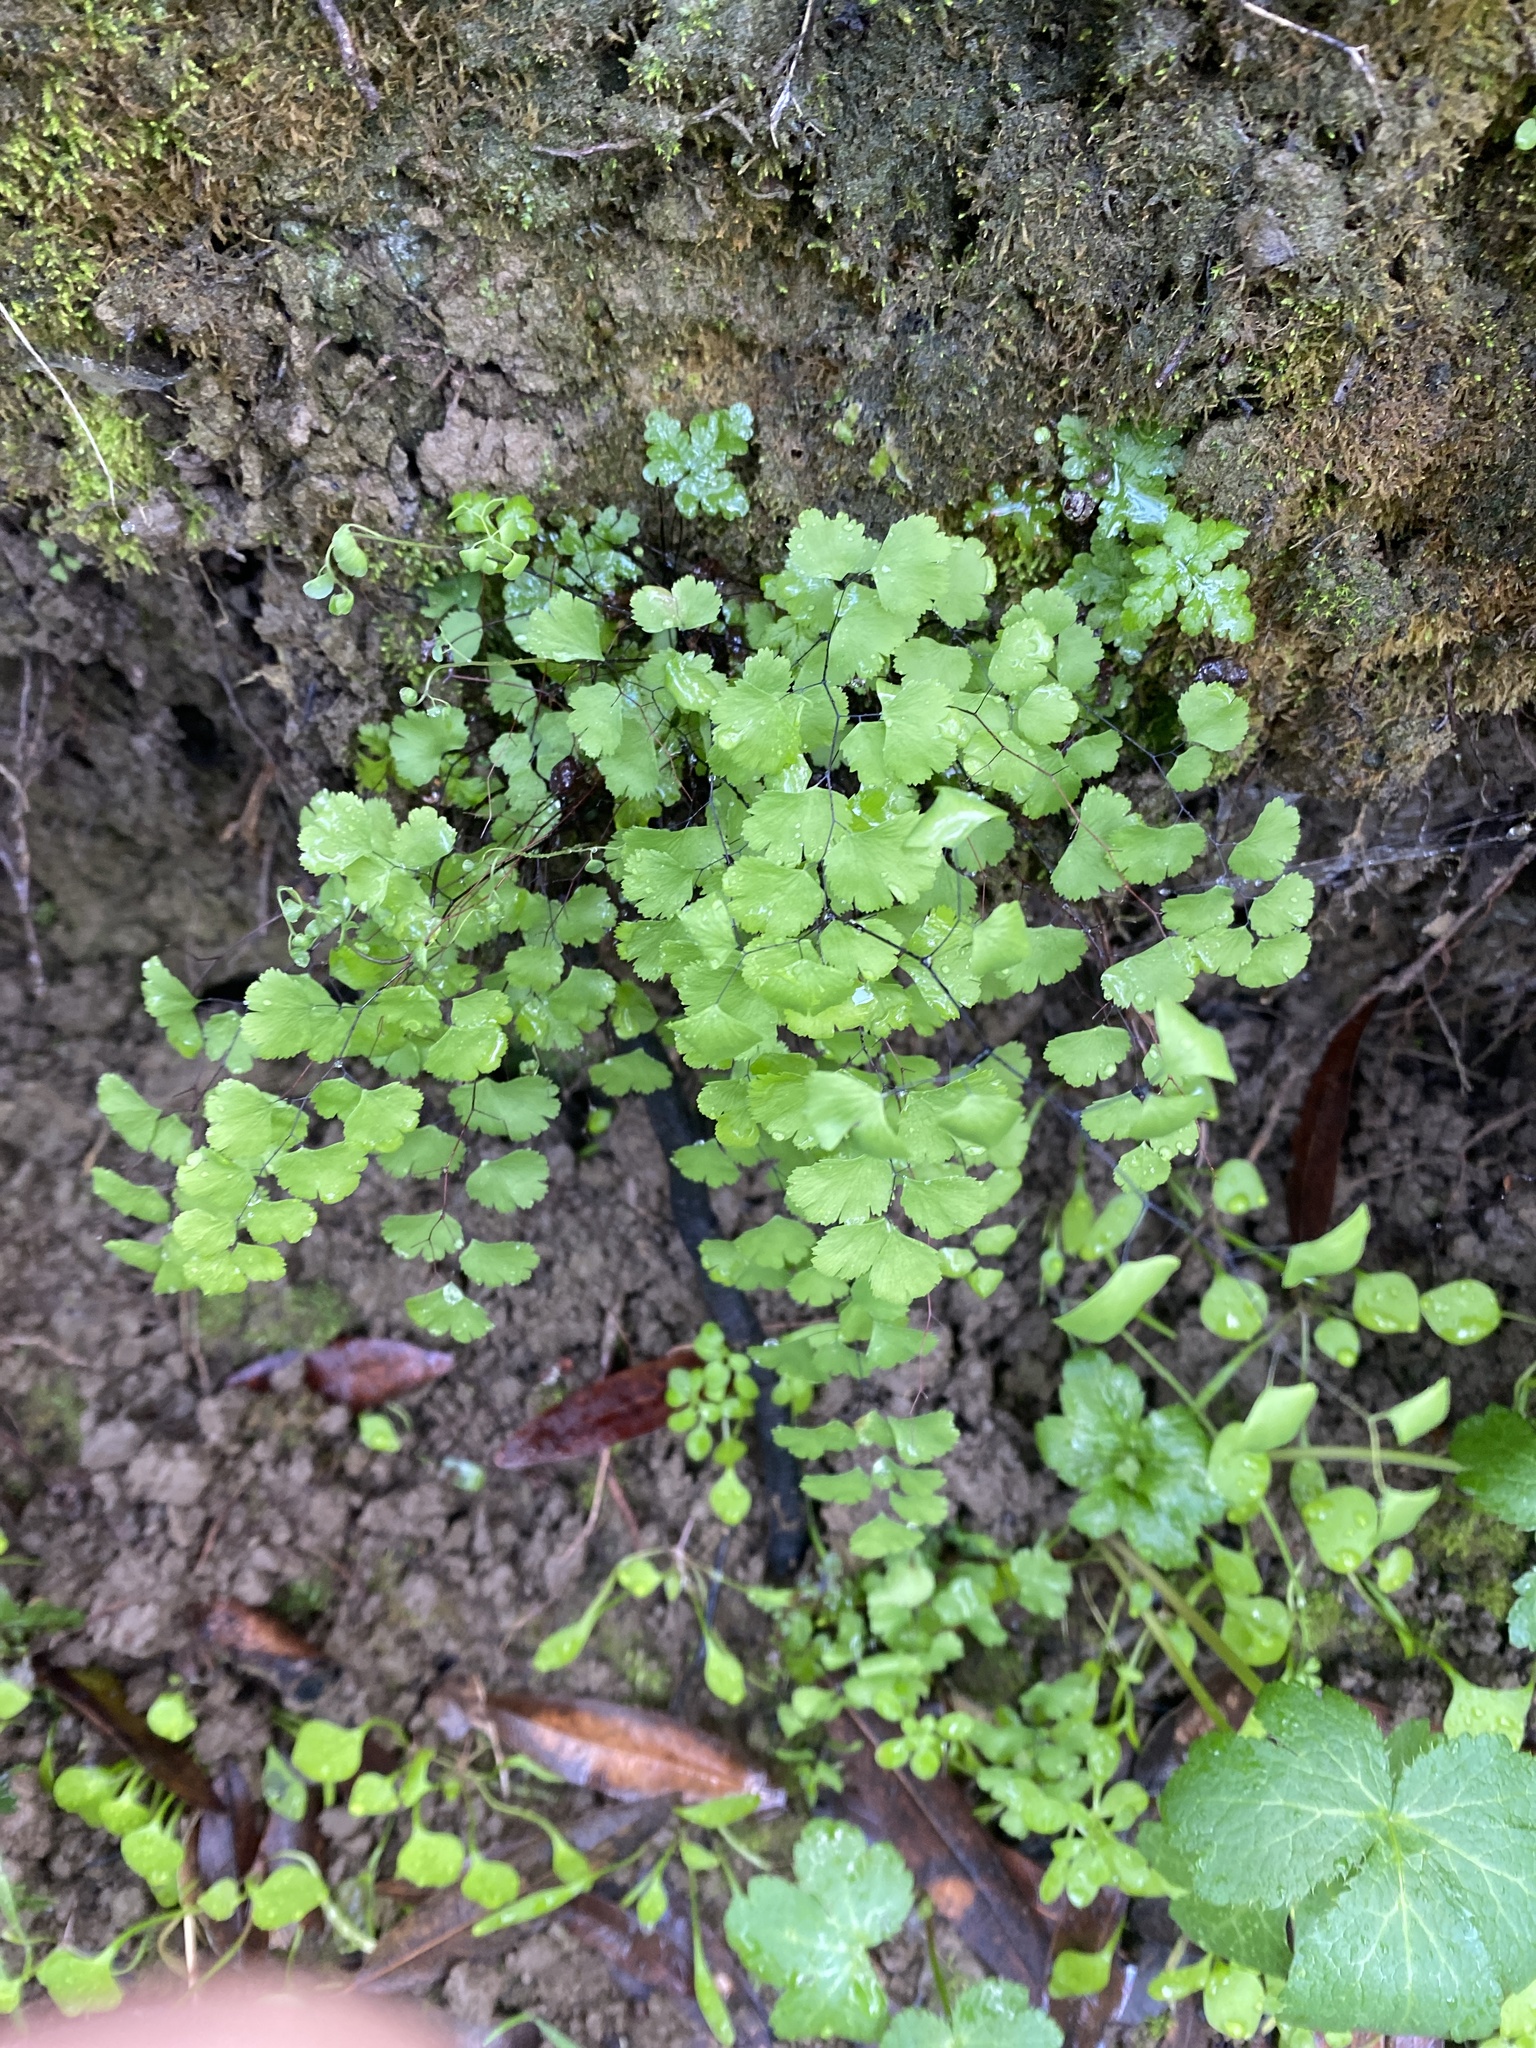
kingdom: Plantae
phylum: Tracheophyta
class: Polypodiopsida
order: Polypodiales
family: Pteridaceae
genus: Adiantum
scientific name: Adiantum jordanii
